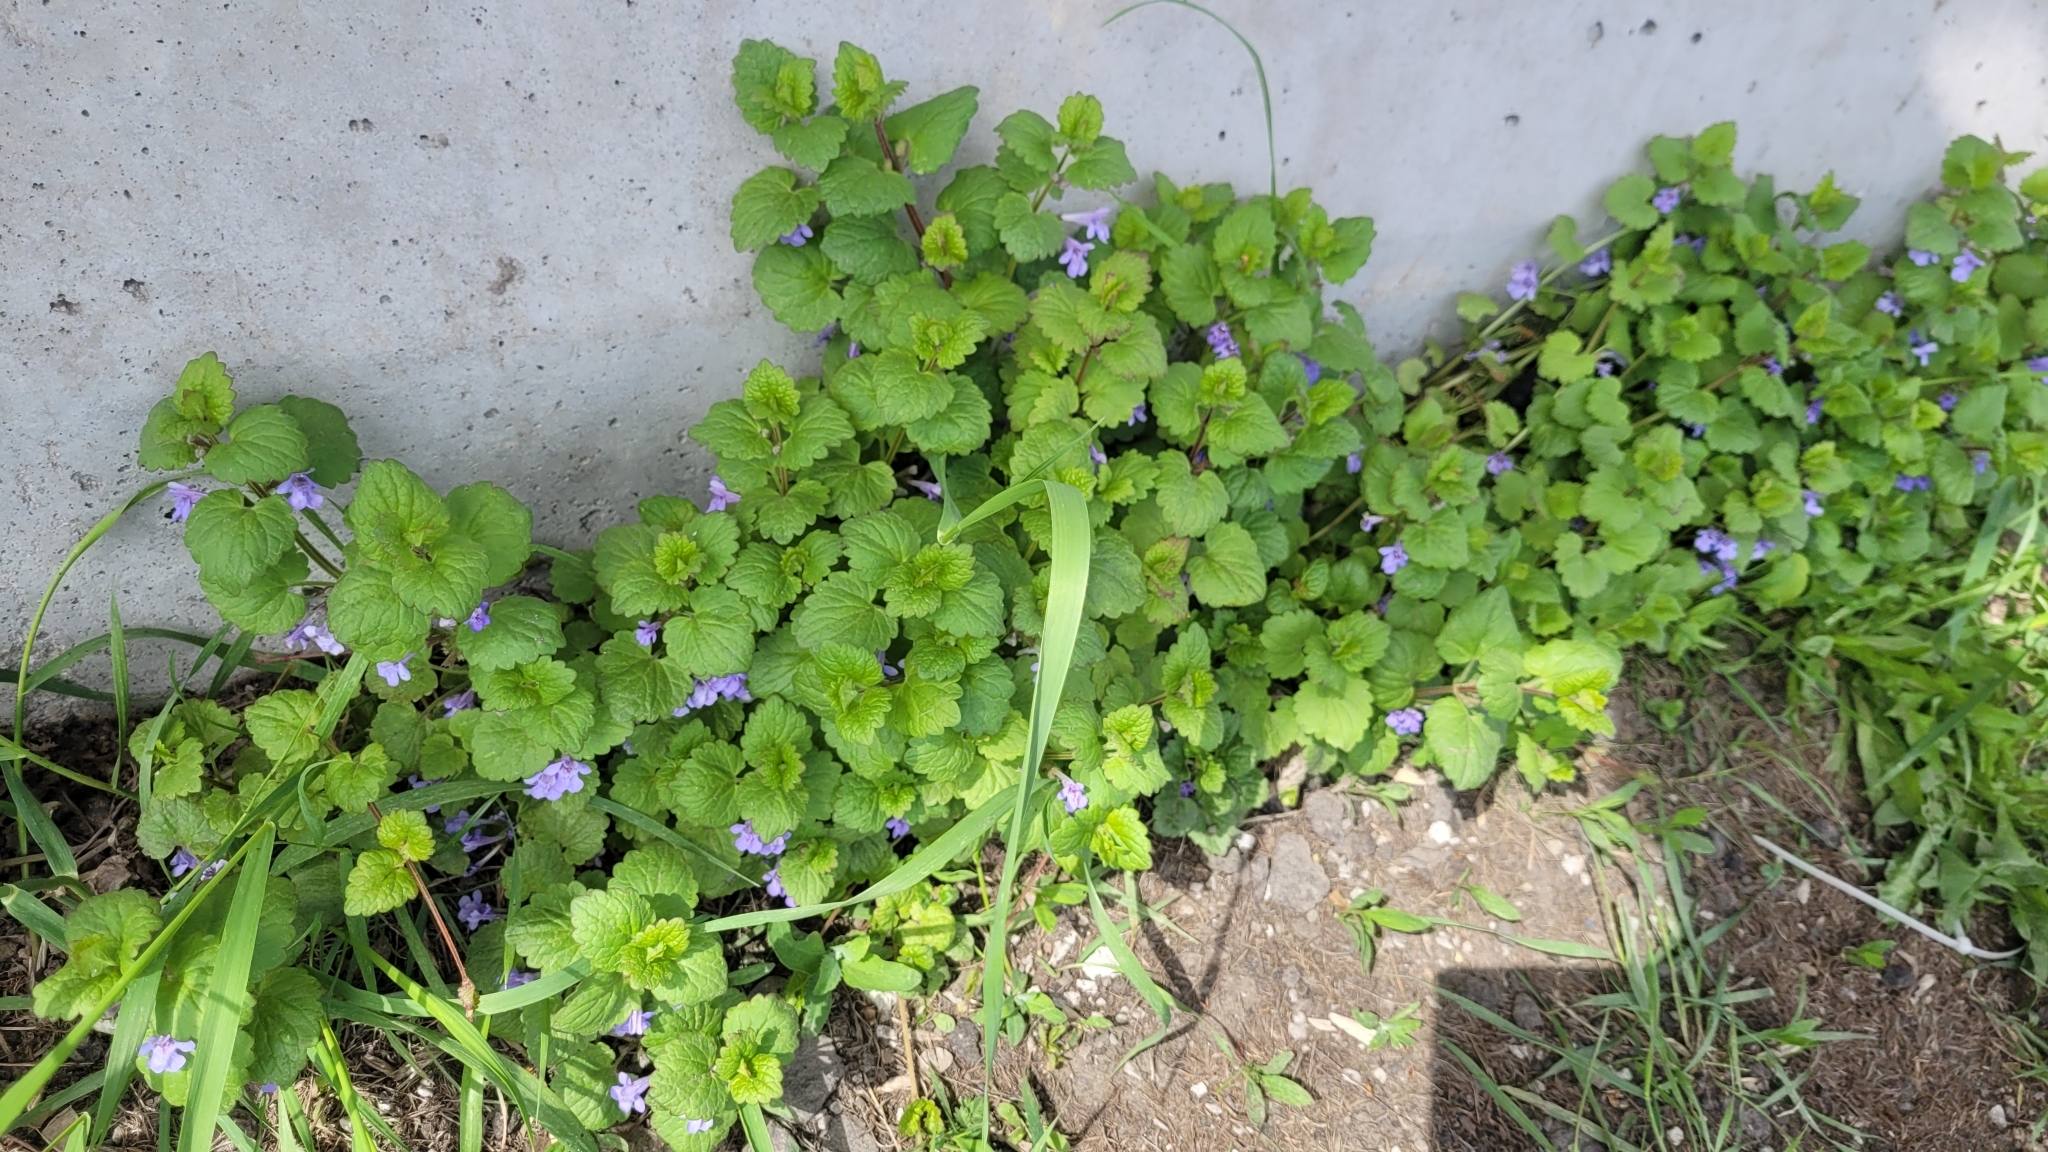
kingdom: Plantae
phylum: Tracheophyta
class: Magnoliopsida
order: Lamiales
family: Lamiaceae
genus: Glechoma
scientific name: Glechoma hederacea
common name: Ground ivy
